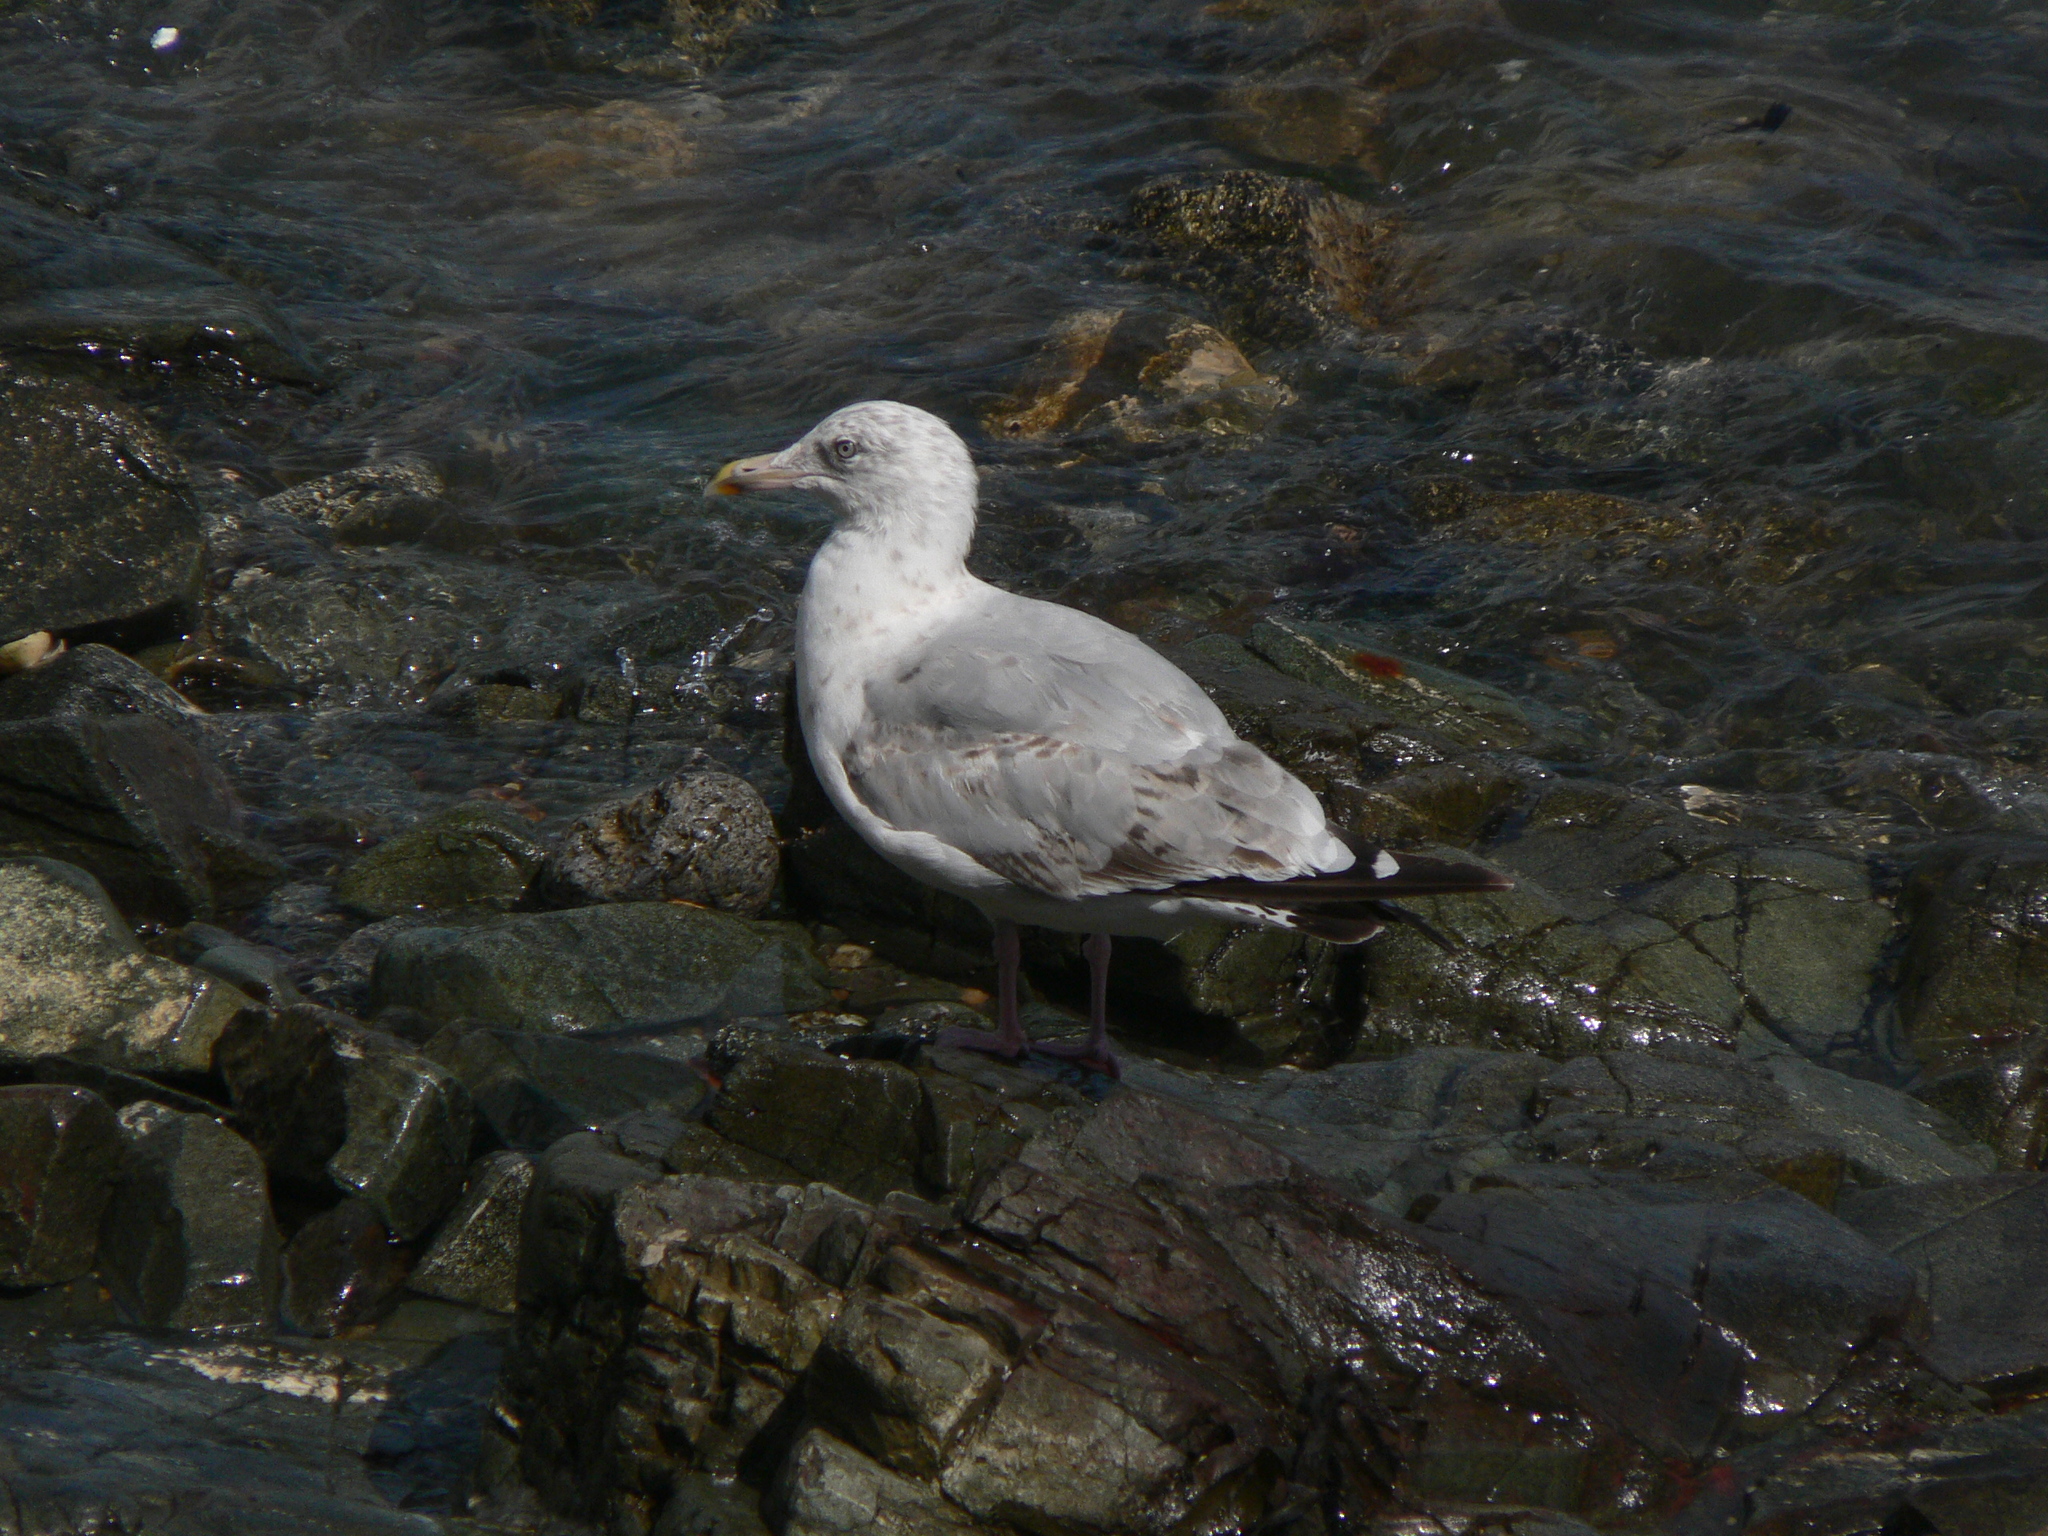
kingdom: Animalia
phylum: Chordata
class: Aves
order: Charadriiformes
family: Laridae
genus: Larus
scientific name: Larus argentatus
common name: Herring gull
